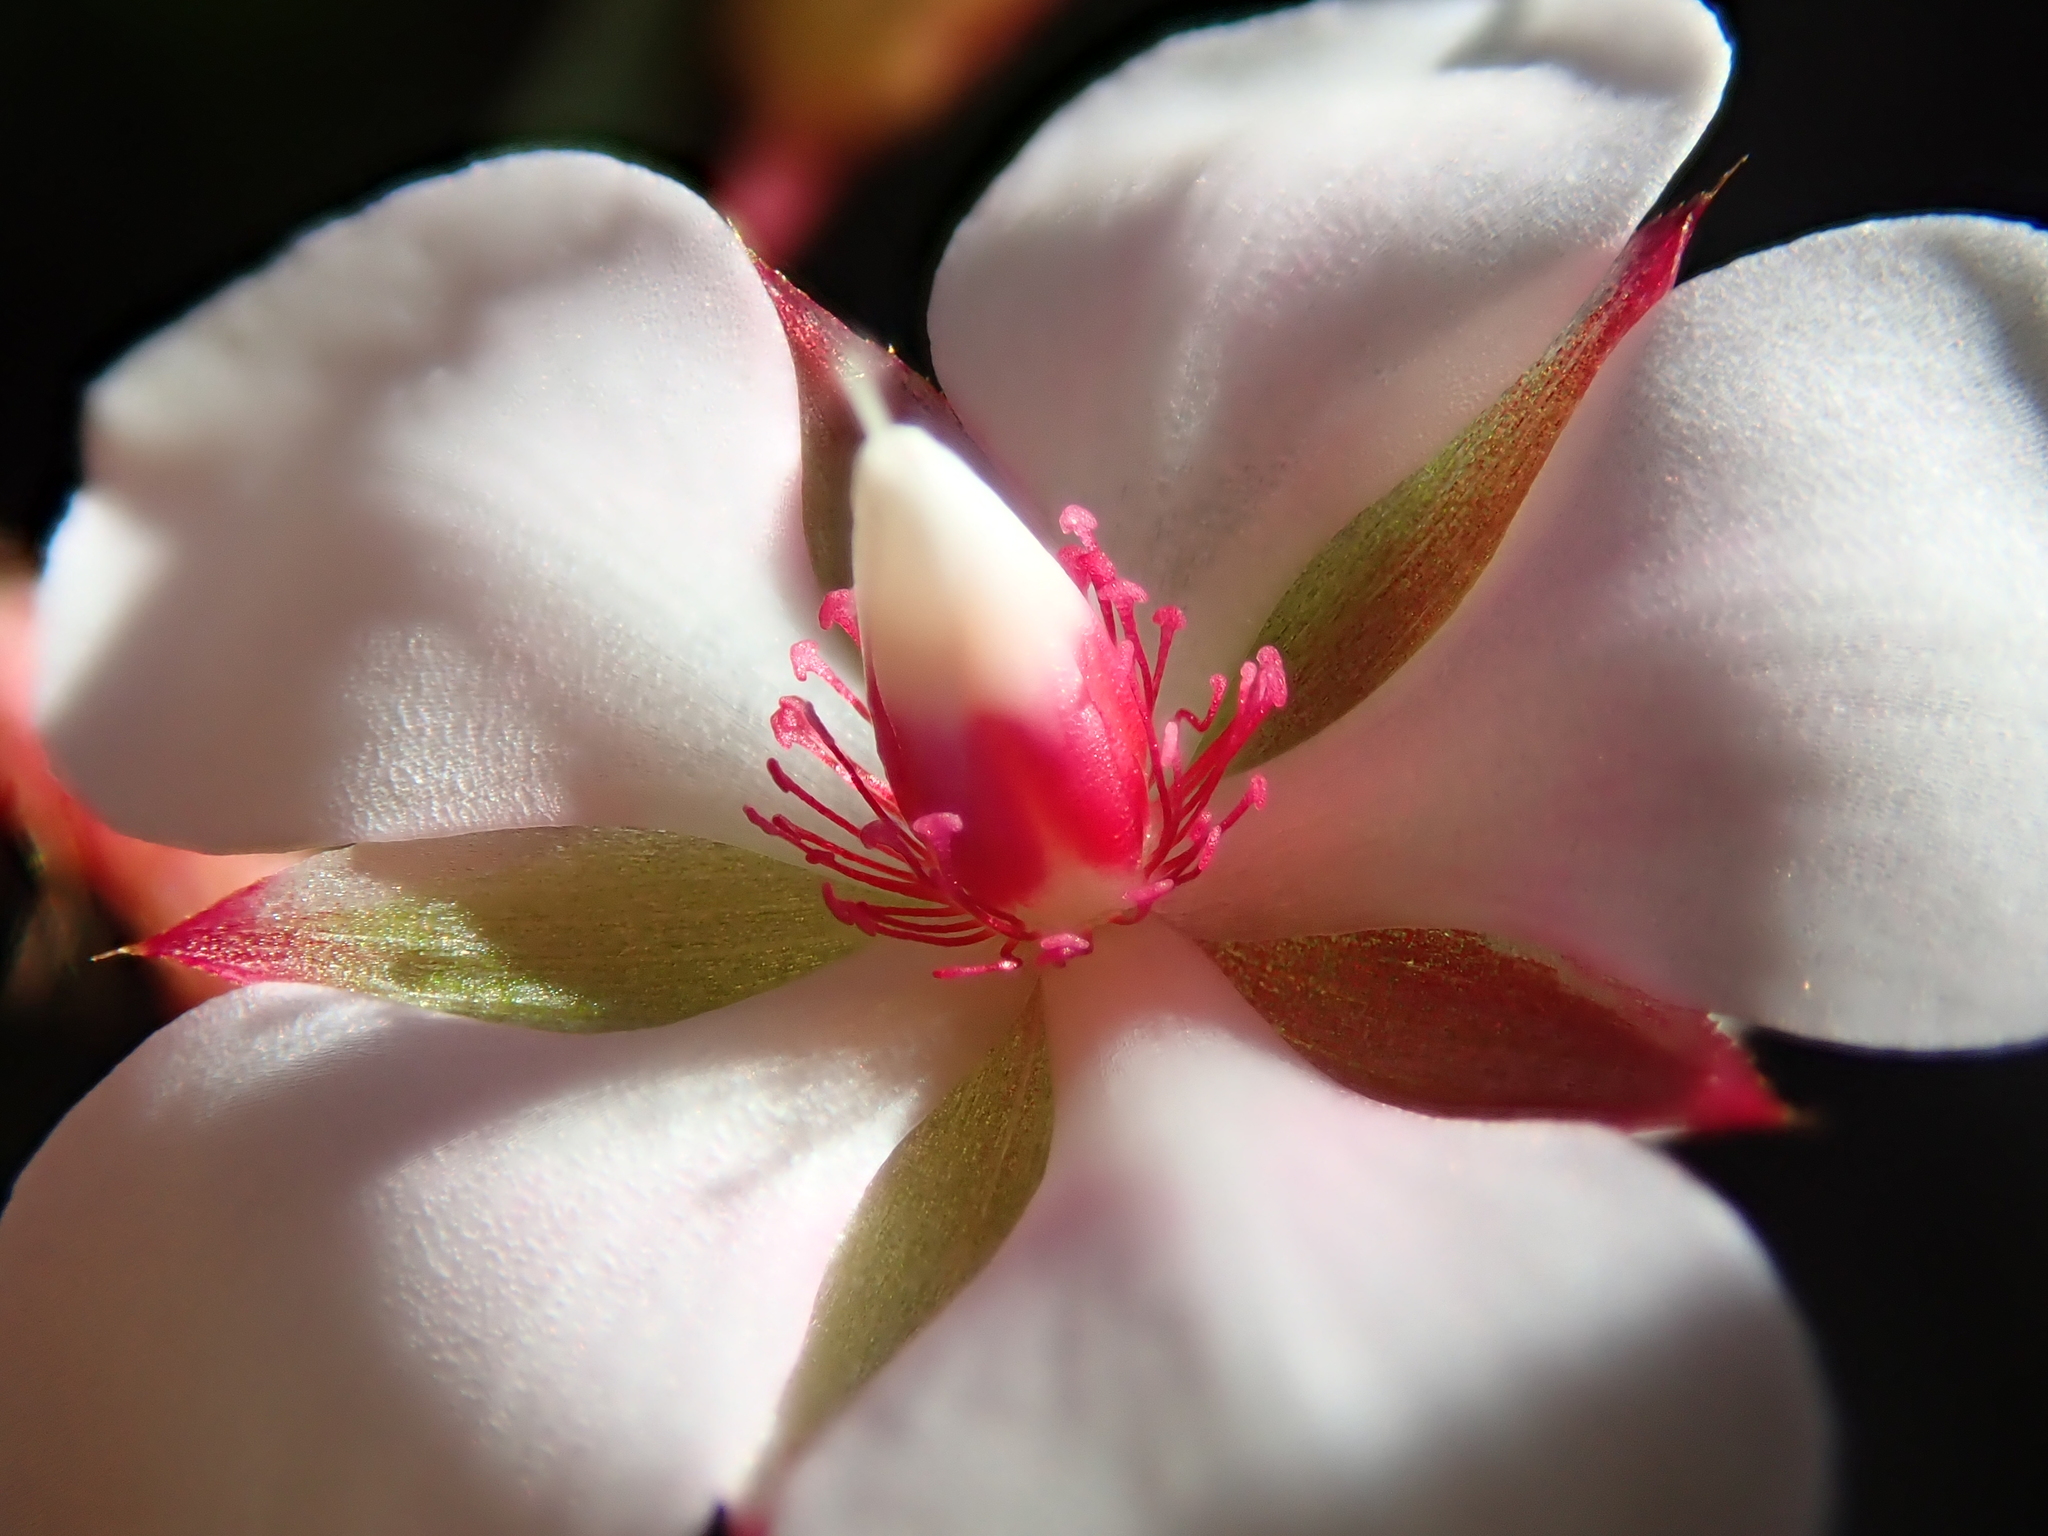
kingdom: Plantae
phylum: Tracheophyta
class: Magnoliopsida
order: Malpighiales
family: Ochnaceae
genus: Sauvagesia
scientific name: Sauvagesia erecta
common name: Creole tea
